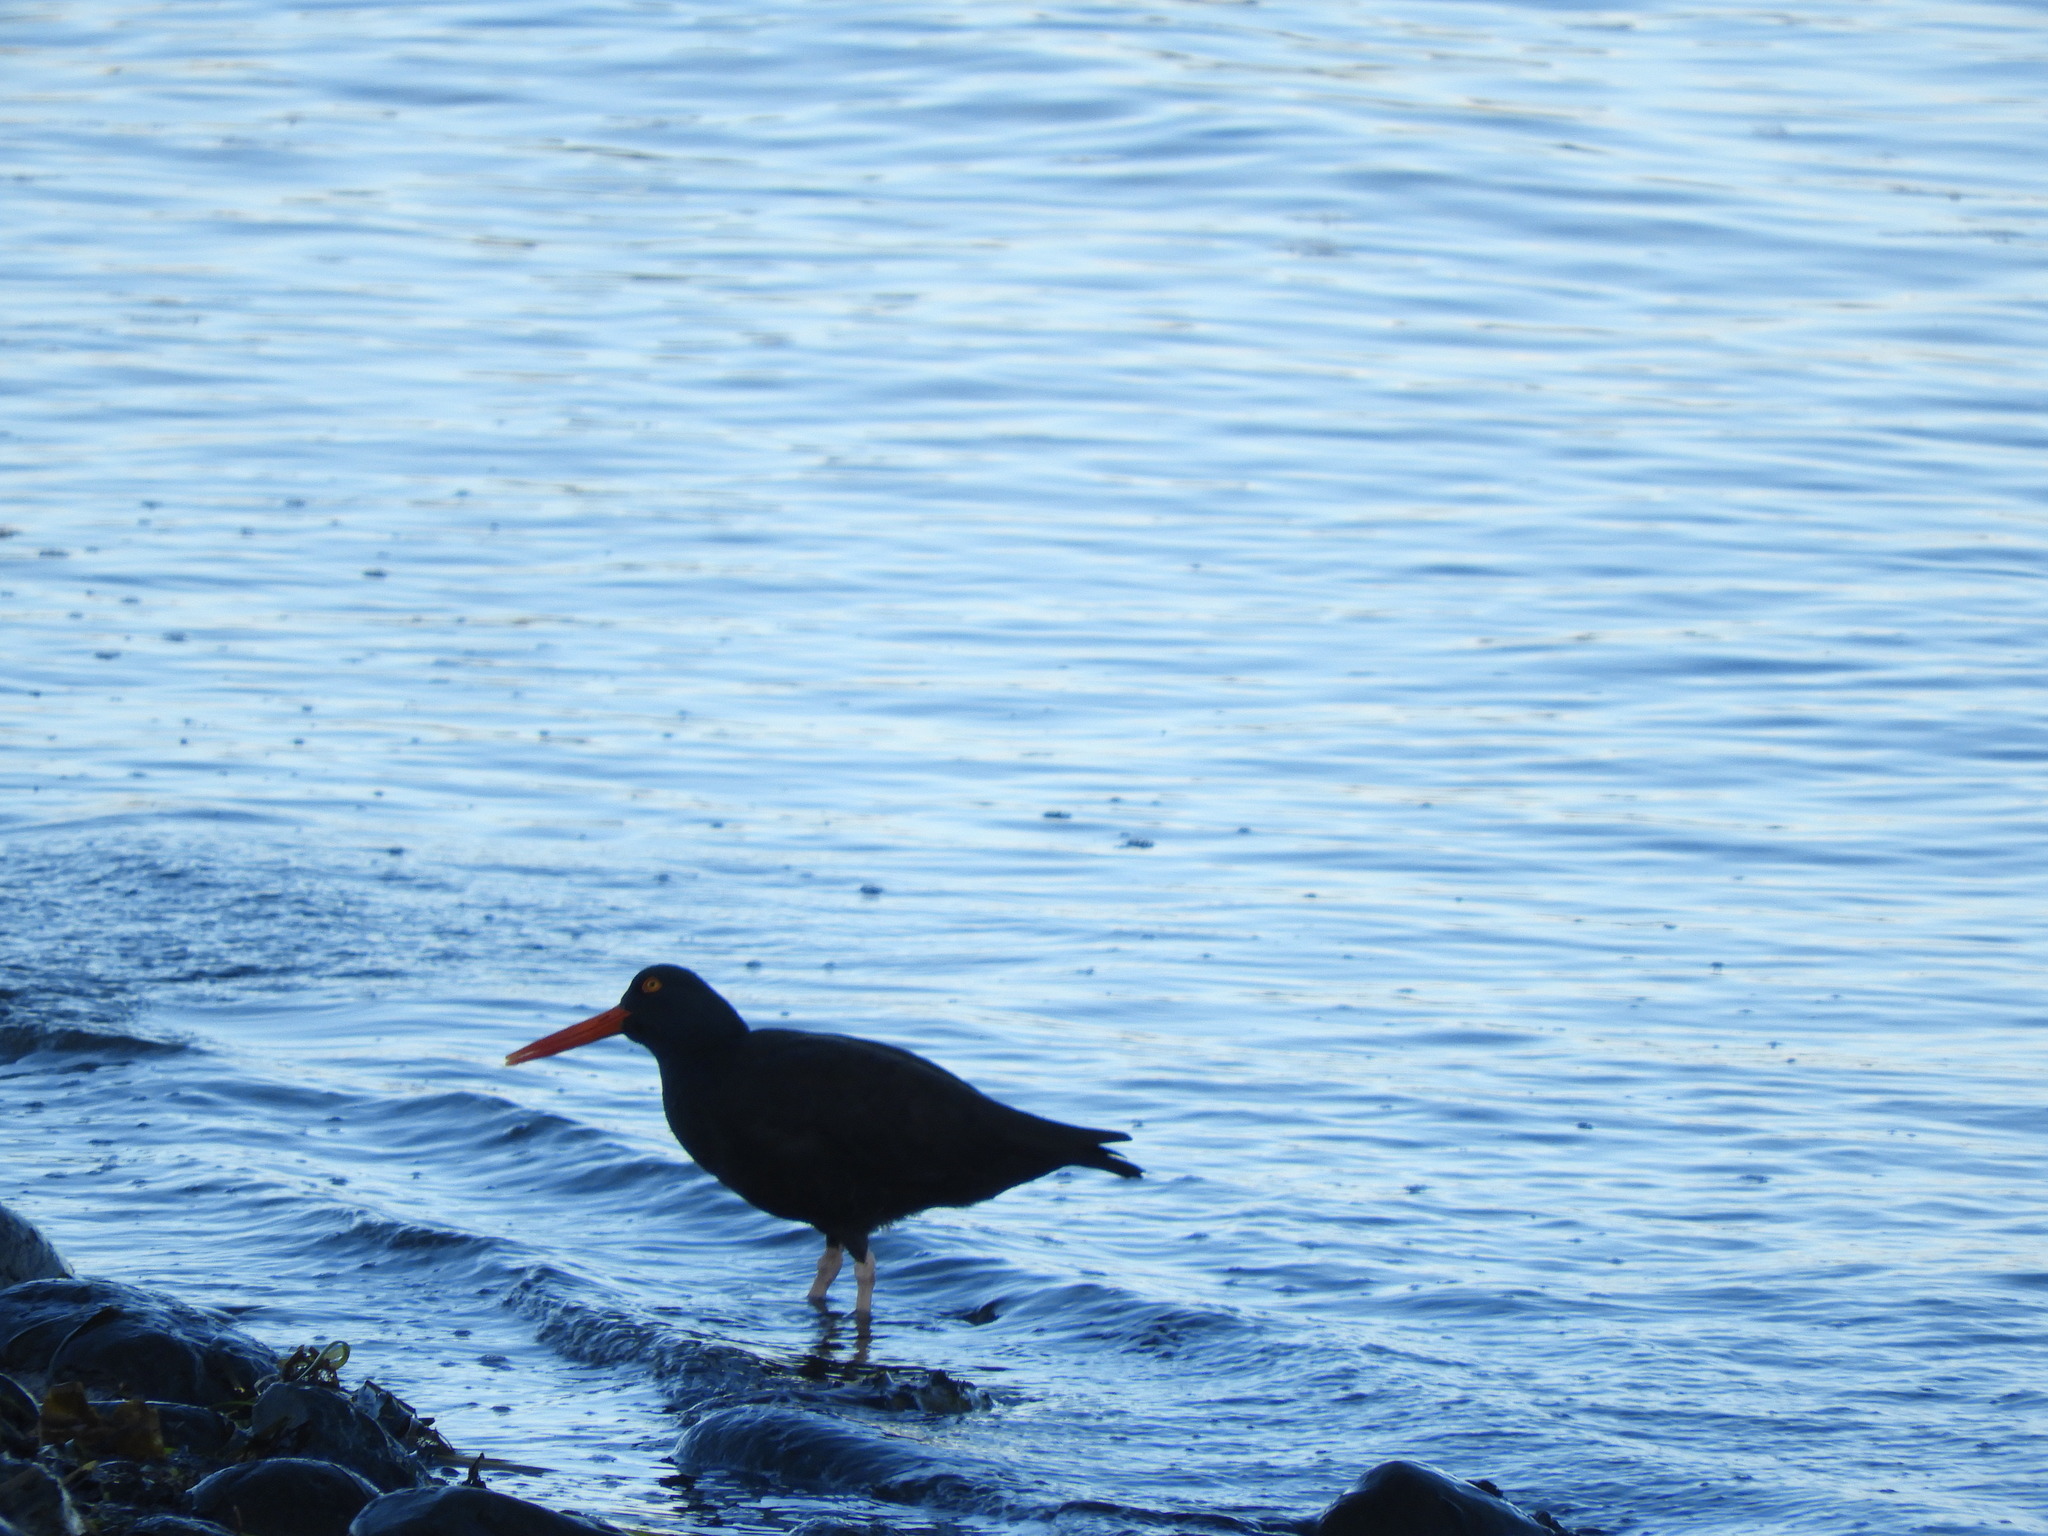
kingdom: Animalia
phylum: Chordata
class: Aves
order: Charadriiformes
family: Haematopodidae
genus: Haematopus
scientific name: Haematopus bachmani
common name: Black oystercatcher
